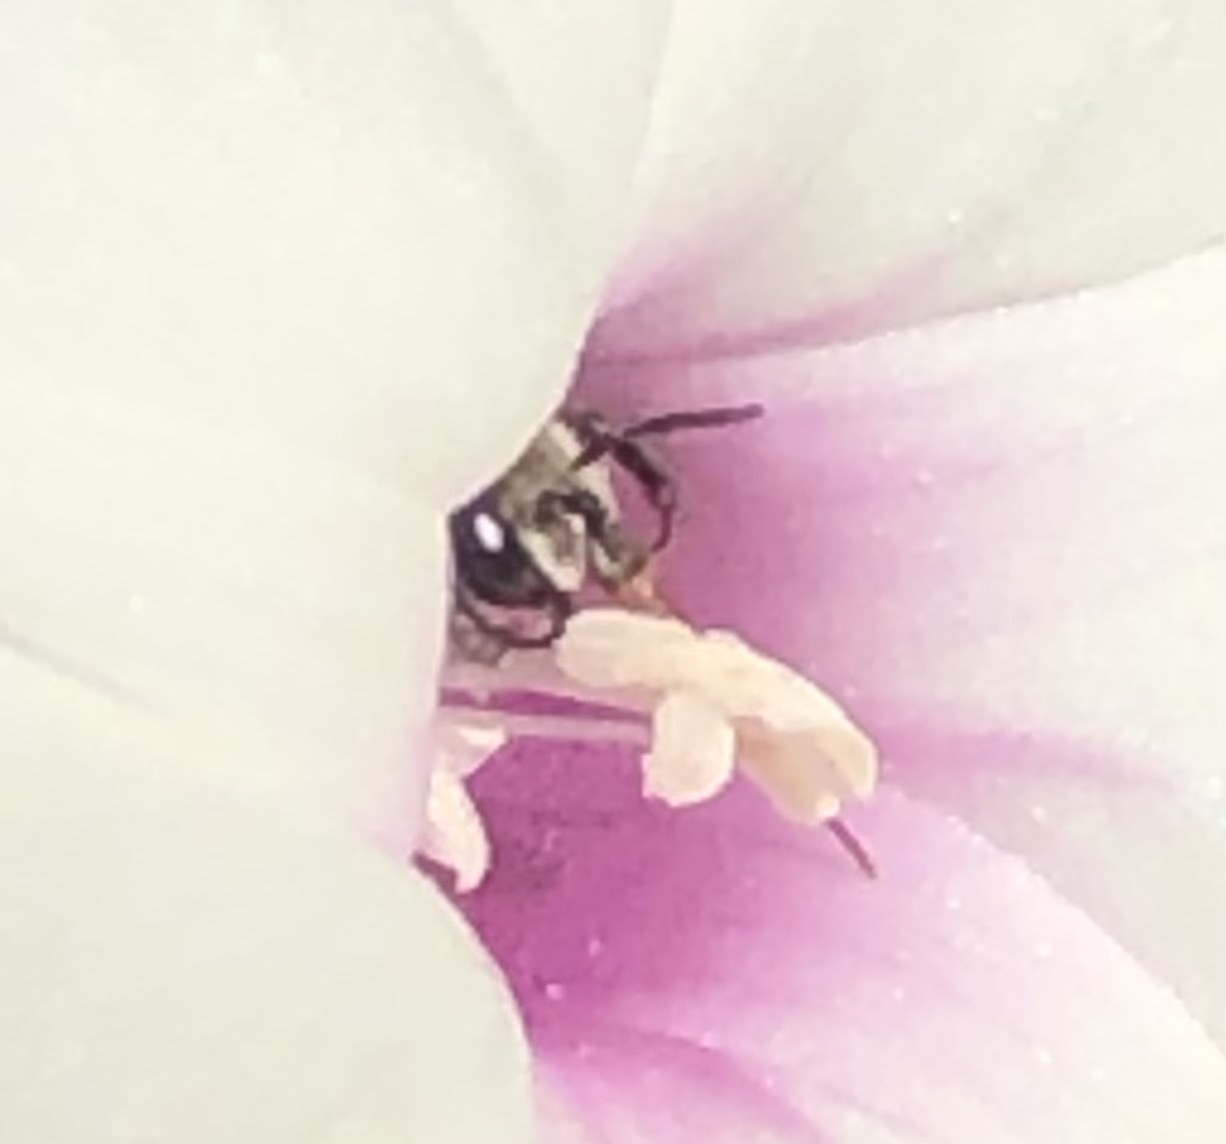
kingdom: Animalia
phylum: Arthropoda
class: Insecta
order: Hymenoptera
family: Apidae
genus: Melitoma
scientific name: Melitoma taurea
